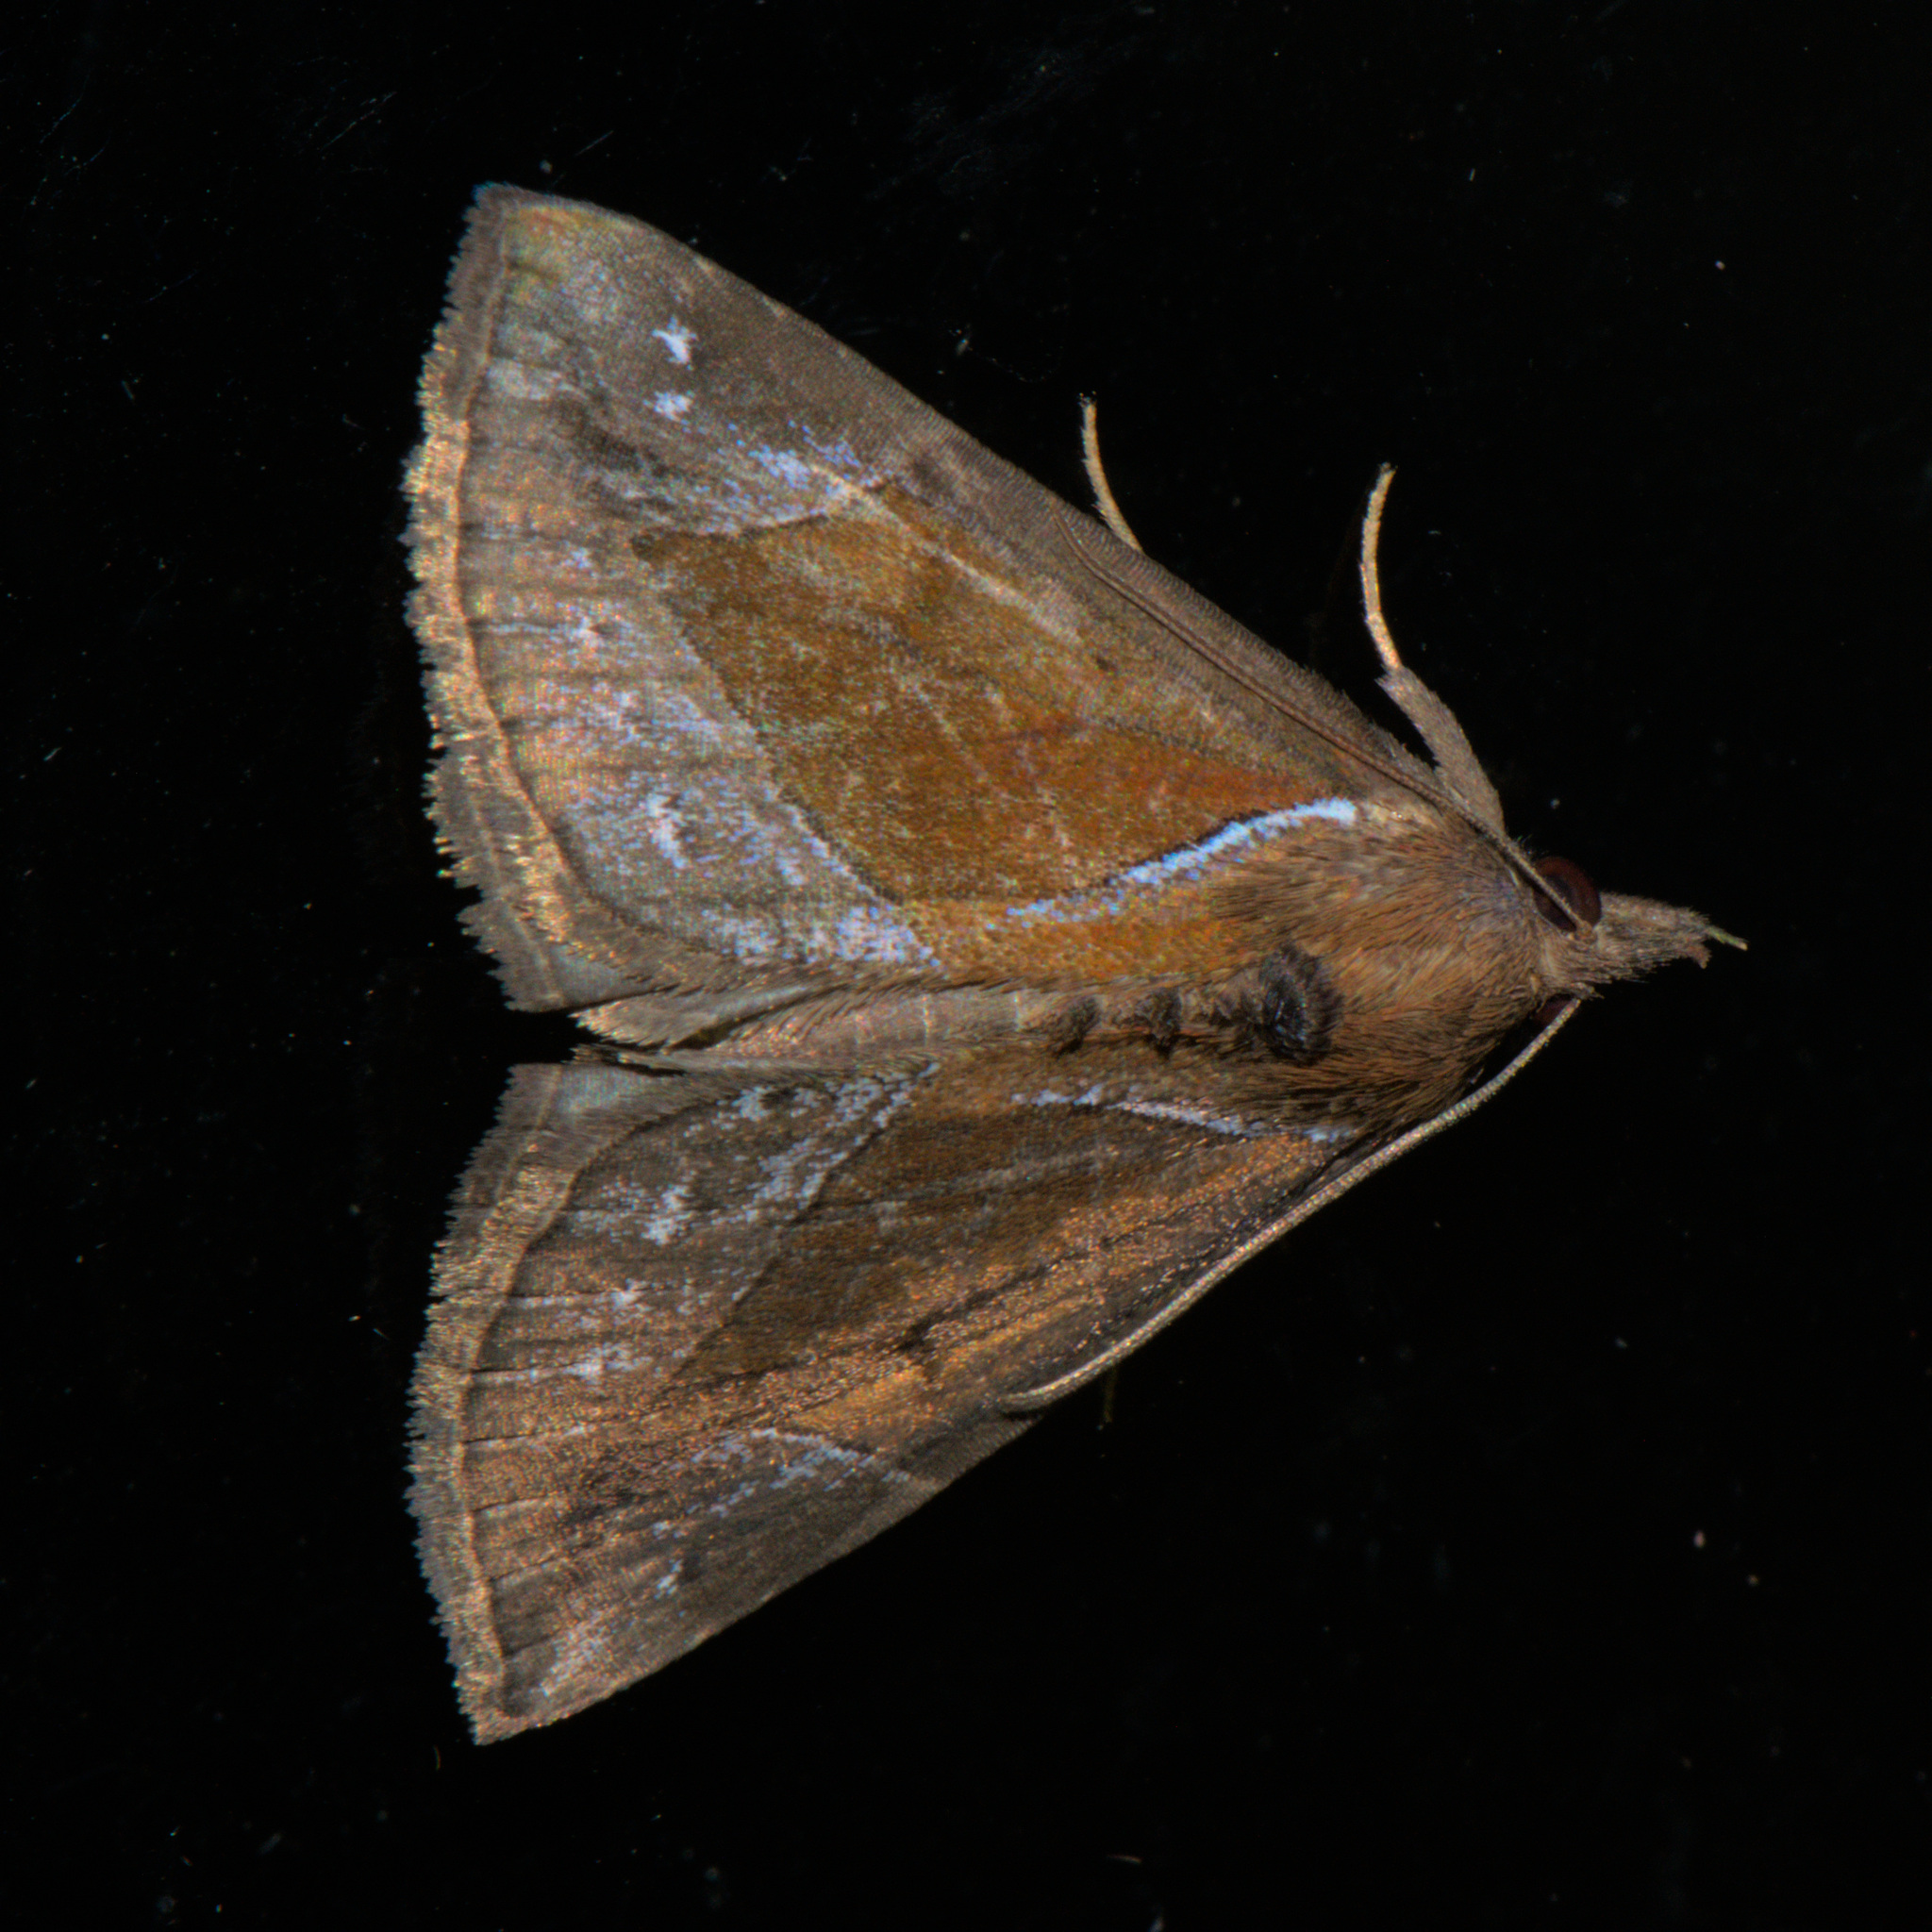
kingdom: Animalia
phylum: Arthropoda
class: Insecta
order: Lepidoptera
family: Erebidae
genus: Hypena
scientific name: Hypena rhombalis
